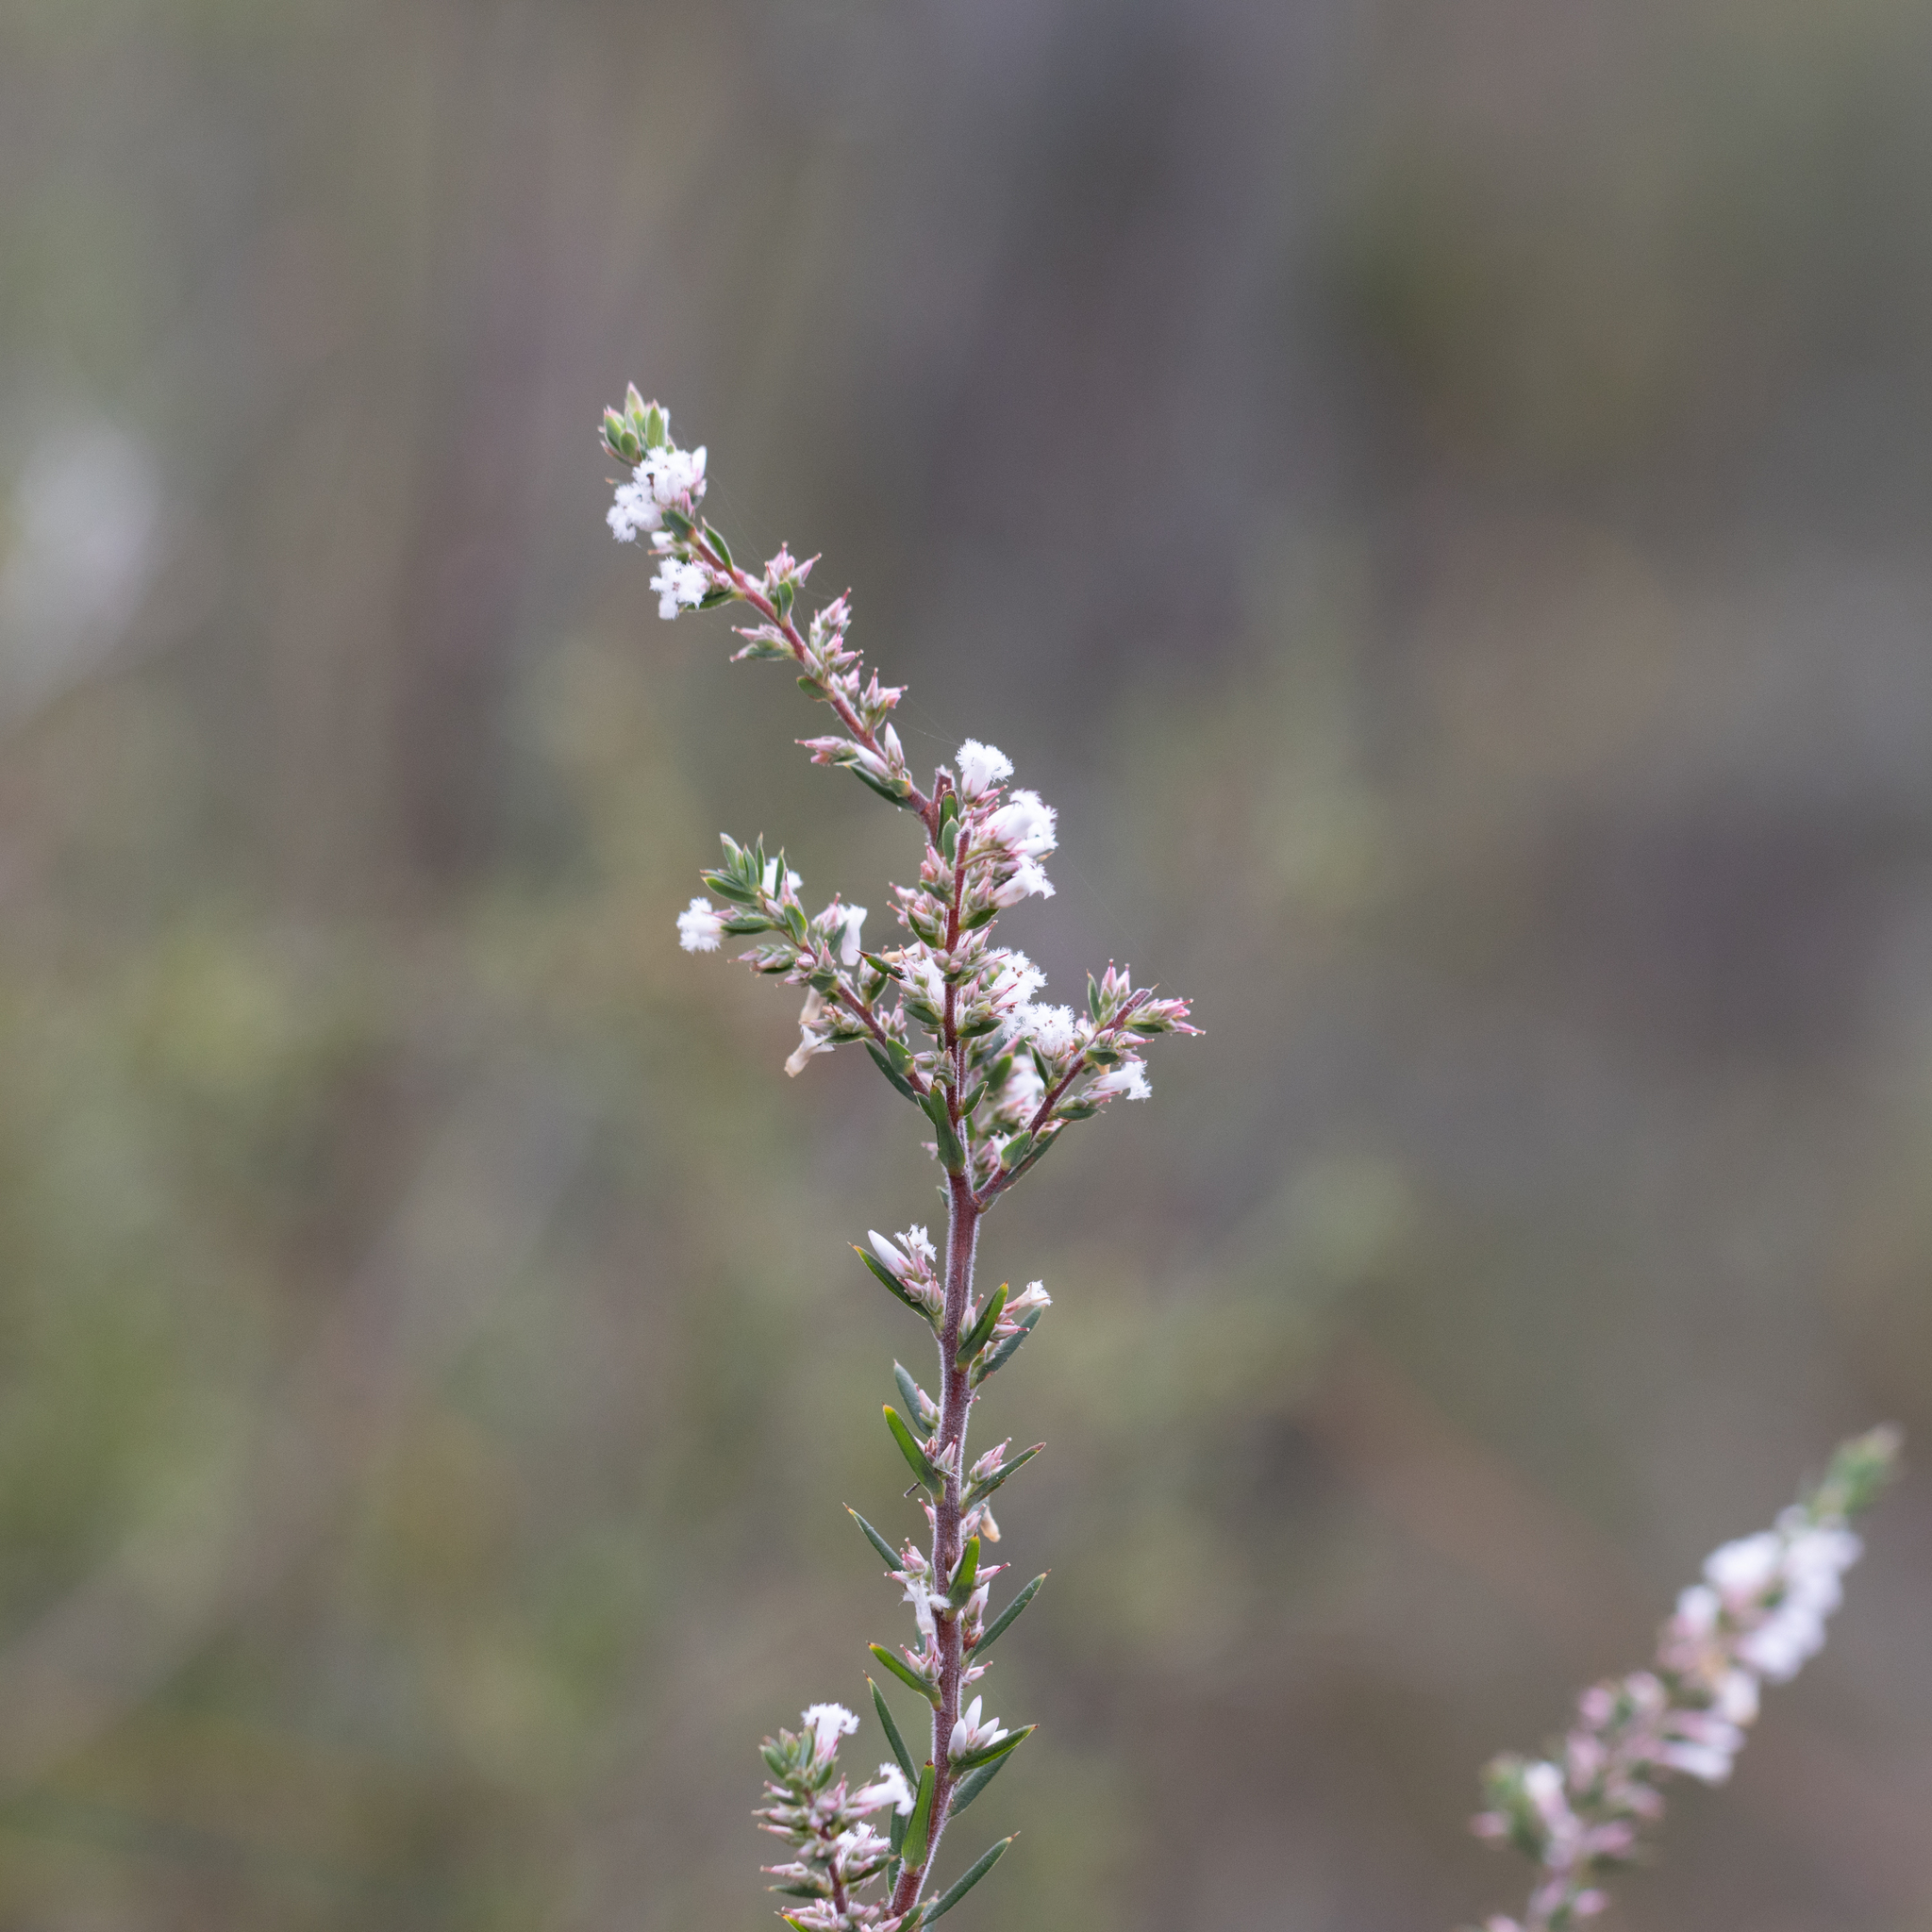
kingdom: Plantae
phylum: Tracheophyta
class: Magnoliopsida
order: Ericales
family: Ericaceae
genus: Styphelia
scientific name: Styphelia ericoides
